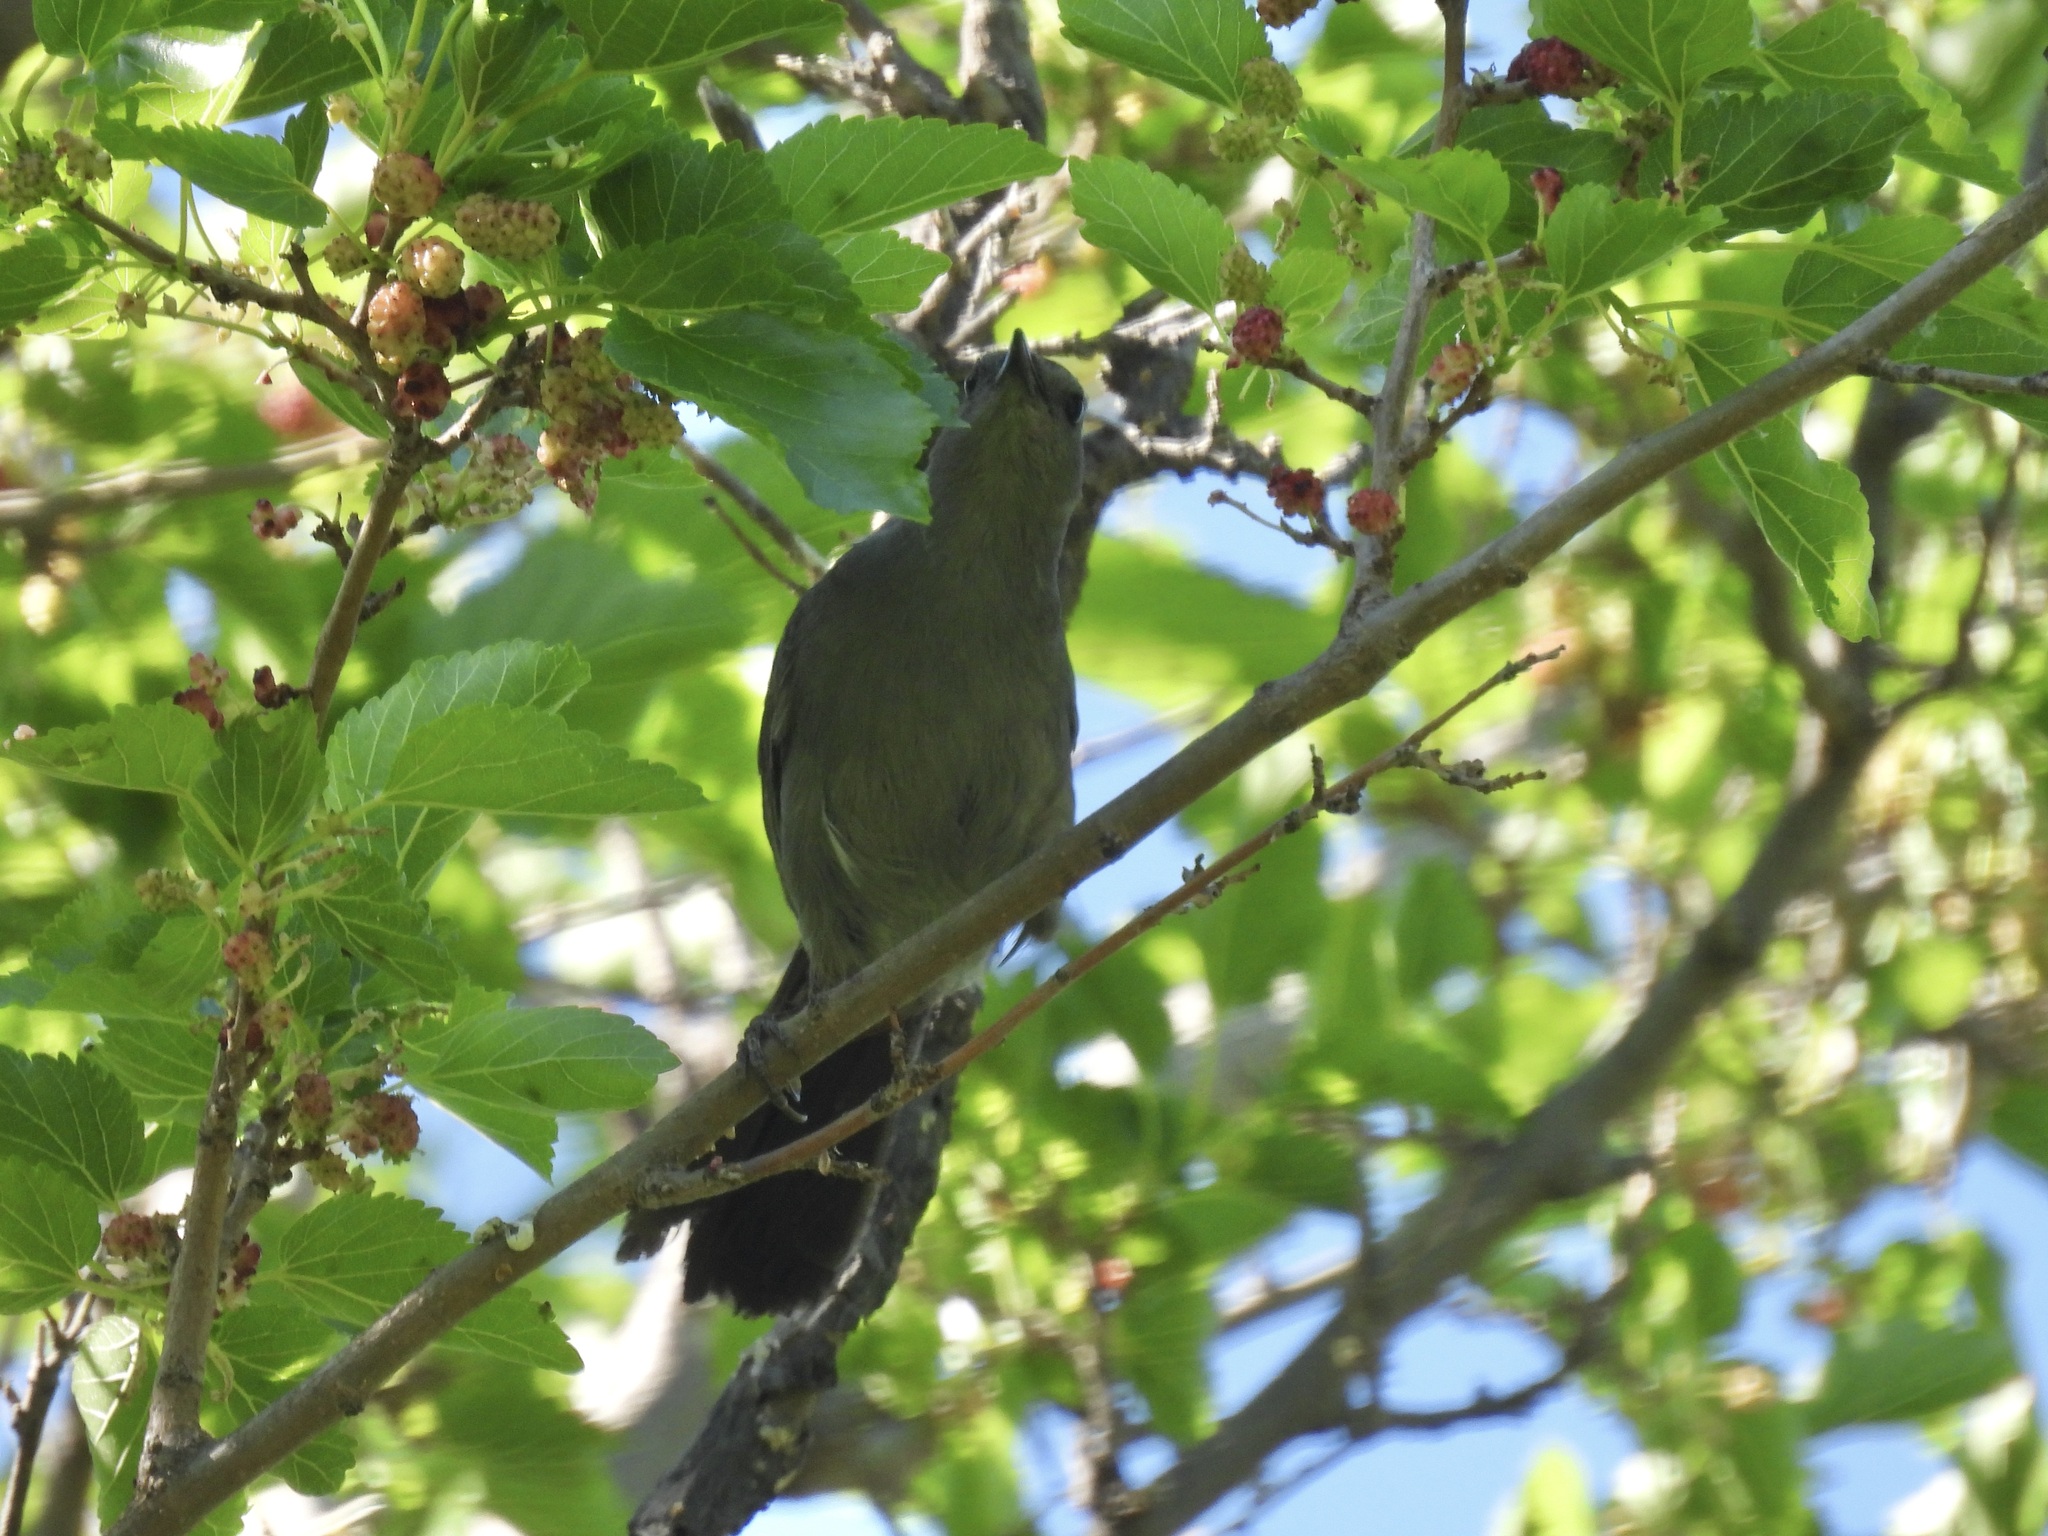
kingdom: Animalia
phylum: Chordata
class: Aves
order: Passeriformes
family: Mimidae
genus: Dumetella
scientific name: Dumetella carolinensis
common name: Gray catbird
